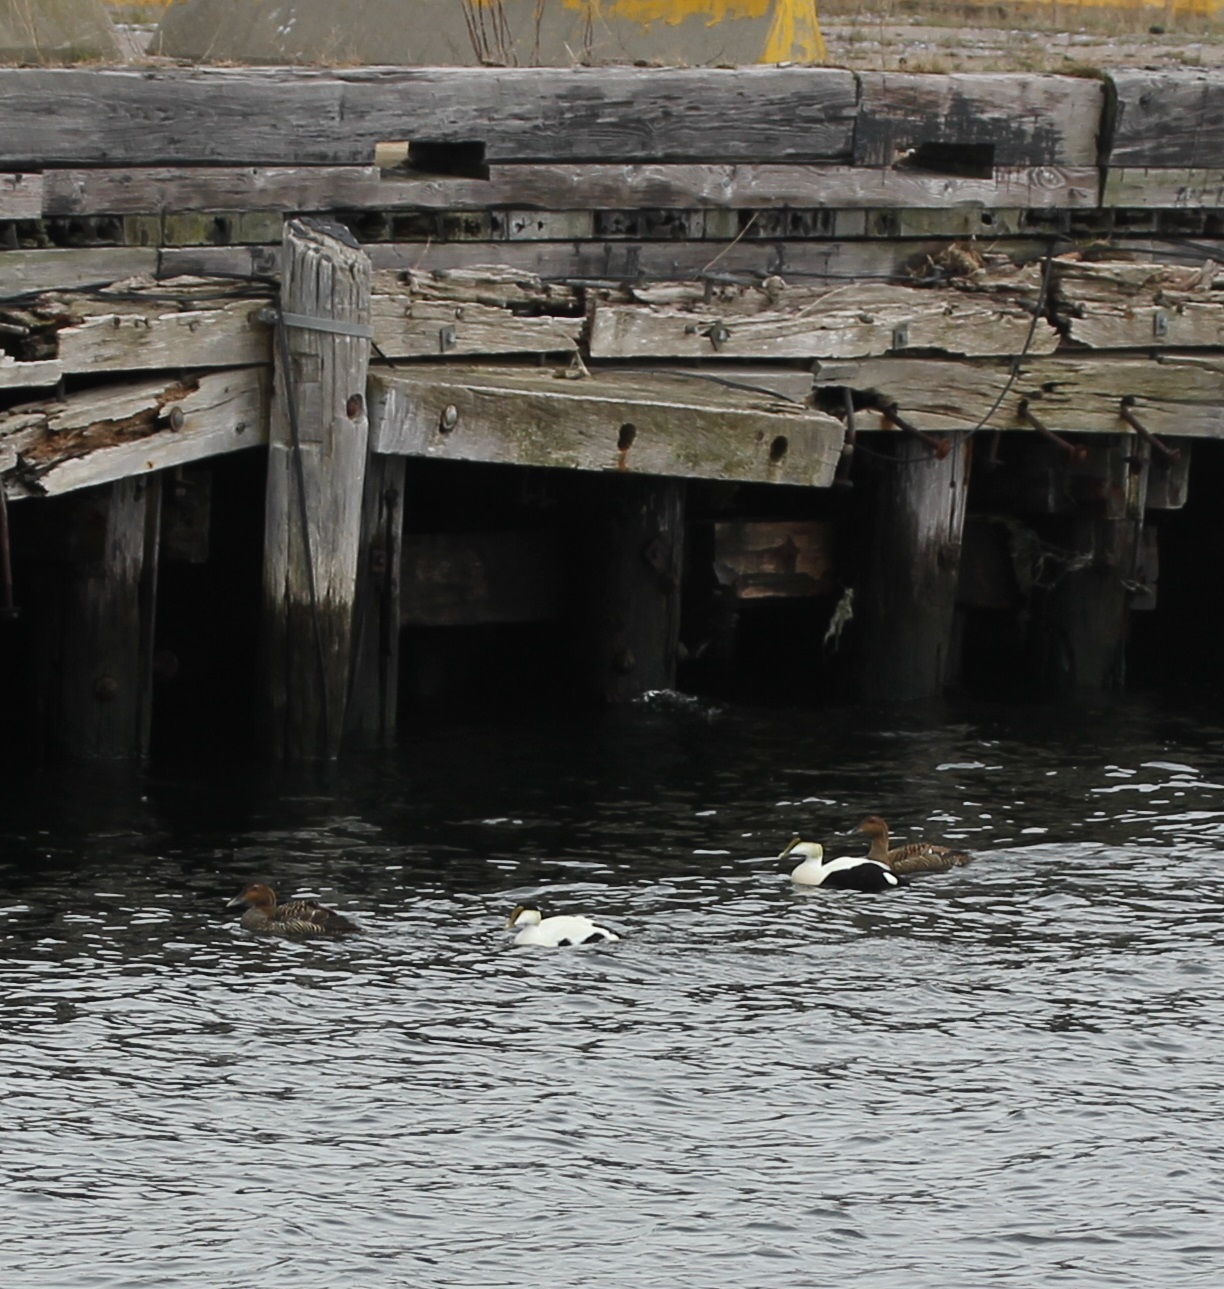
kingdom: Animalia
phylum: Chordata
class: Aves
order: Anseriformes
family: Anatidae
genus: Somateria
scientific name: Somateria mollissima
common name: Common eider
